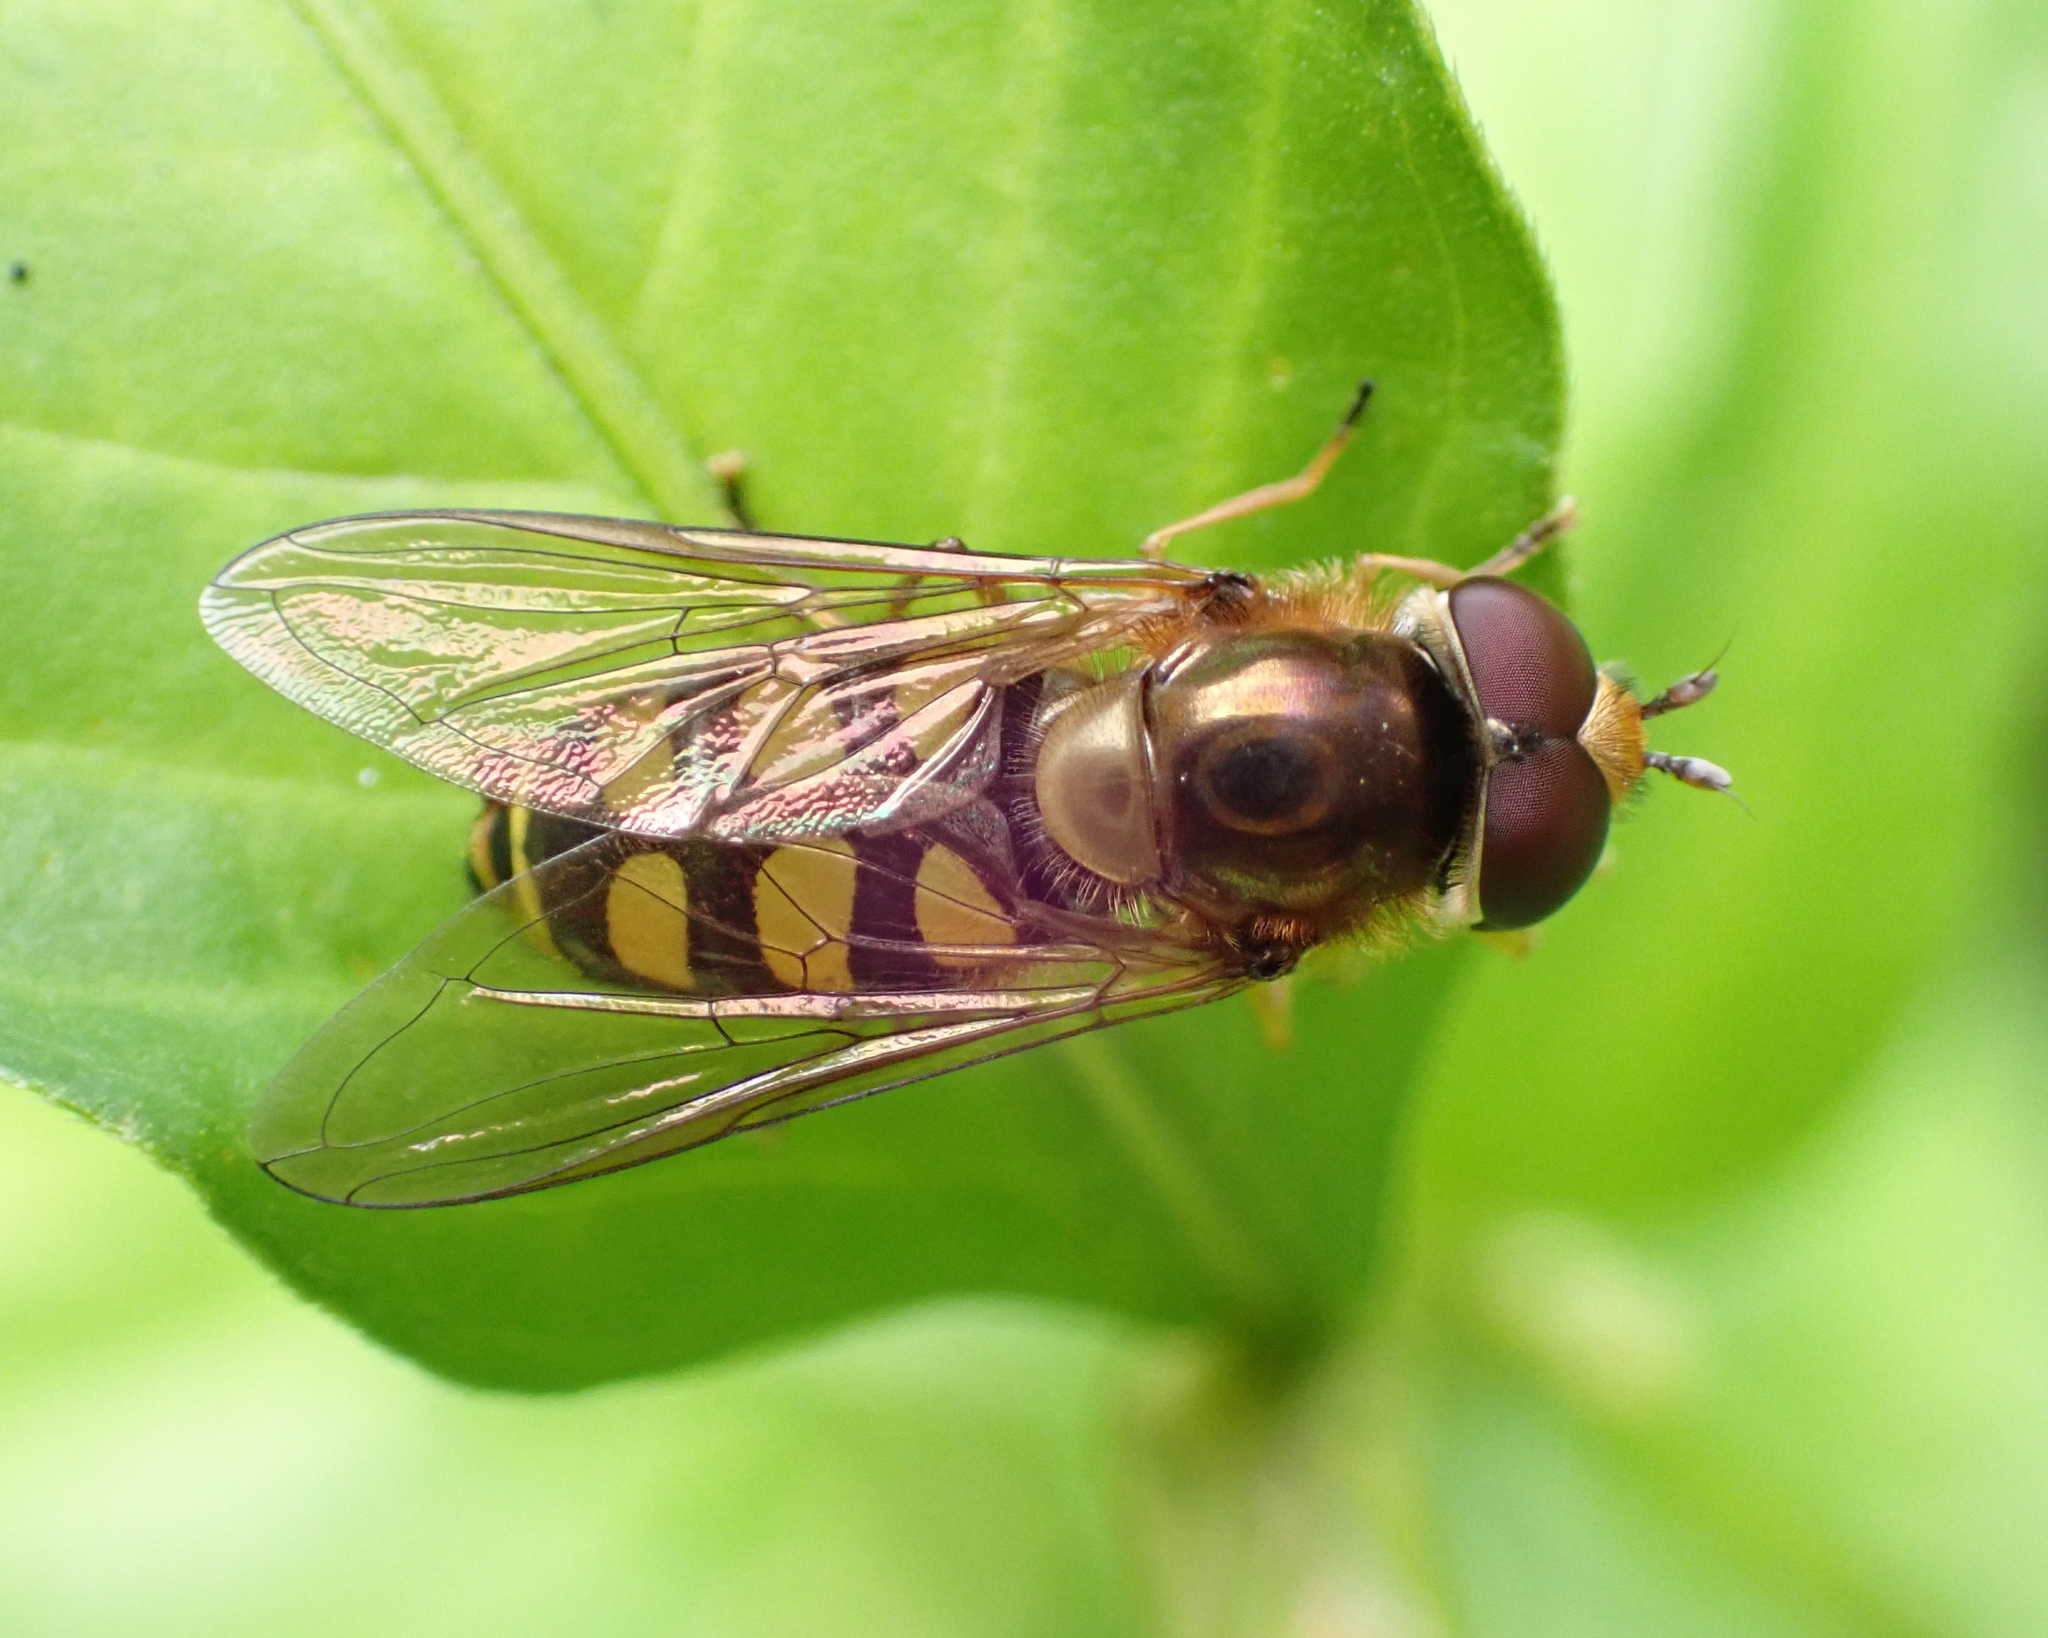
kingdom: Animalia
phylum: Arthropoda
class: Insecta
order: Diptera
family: Syrphidae
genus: Eupeodes
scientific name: Eupeodes
